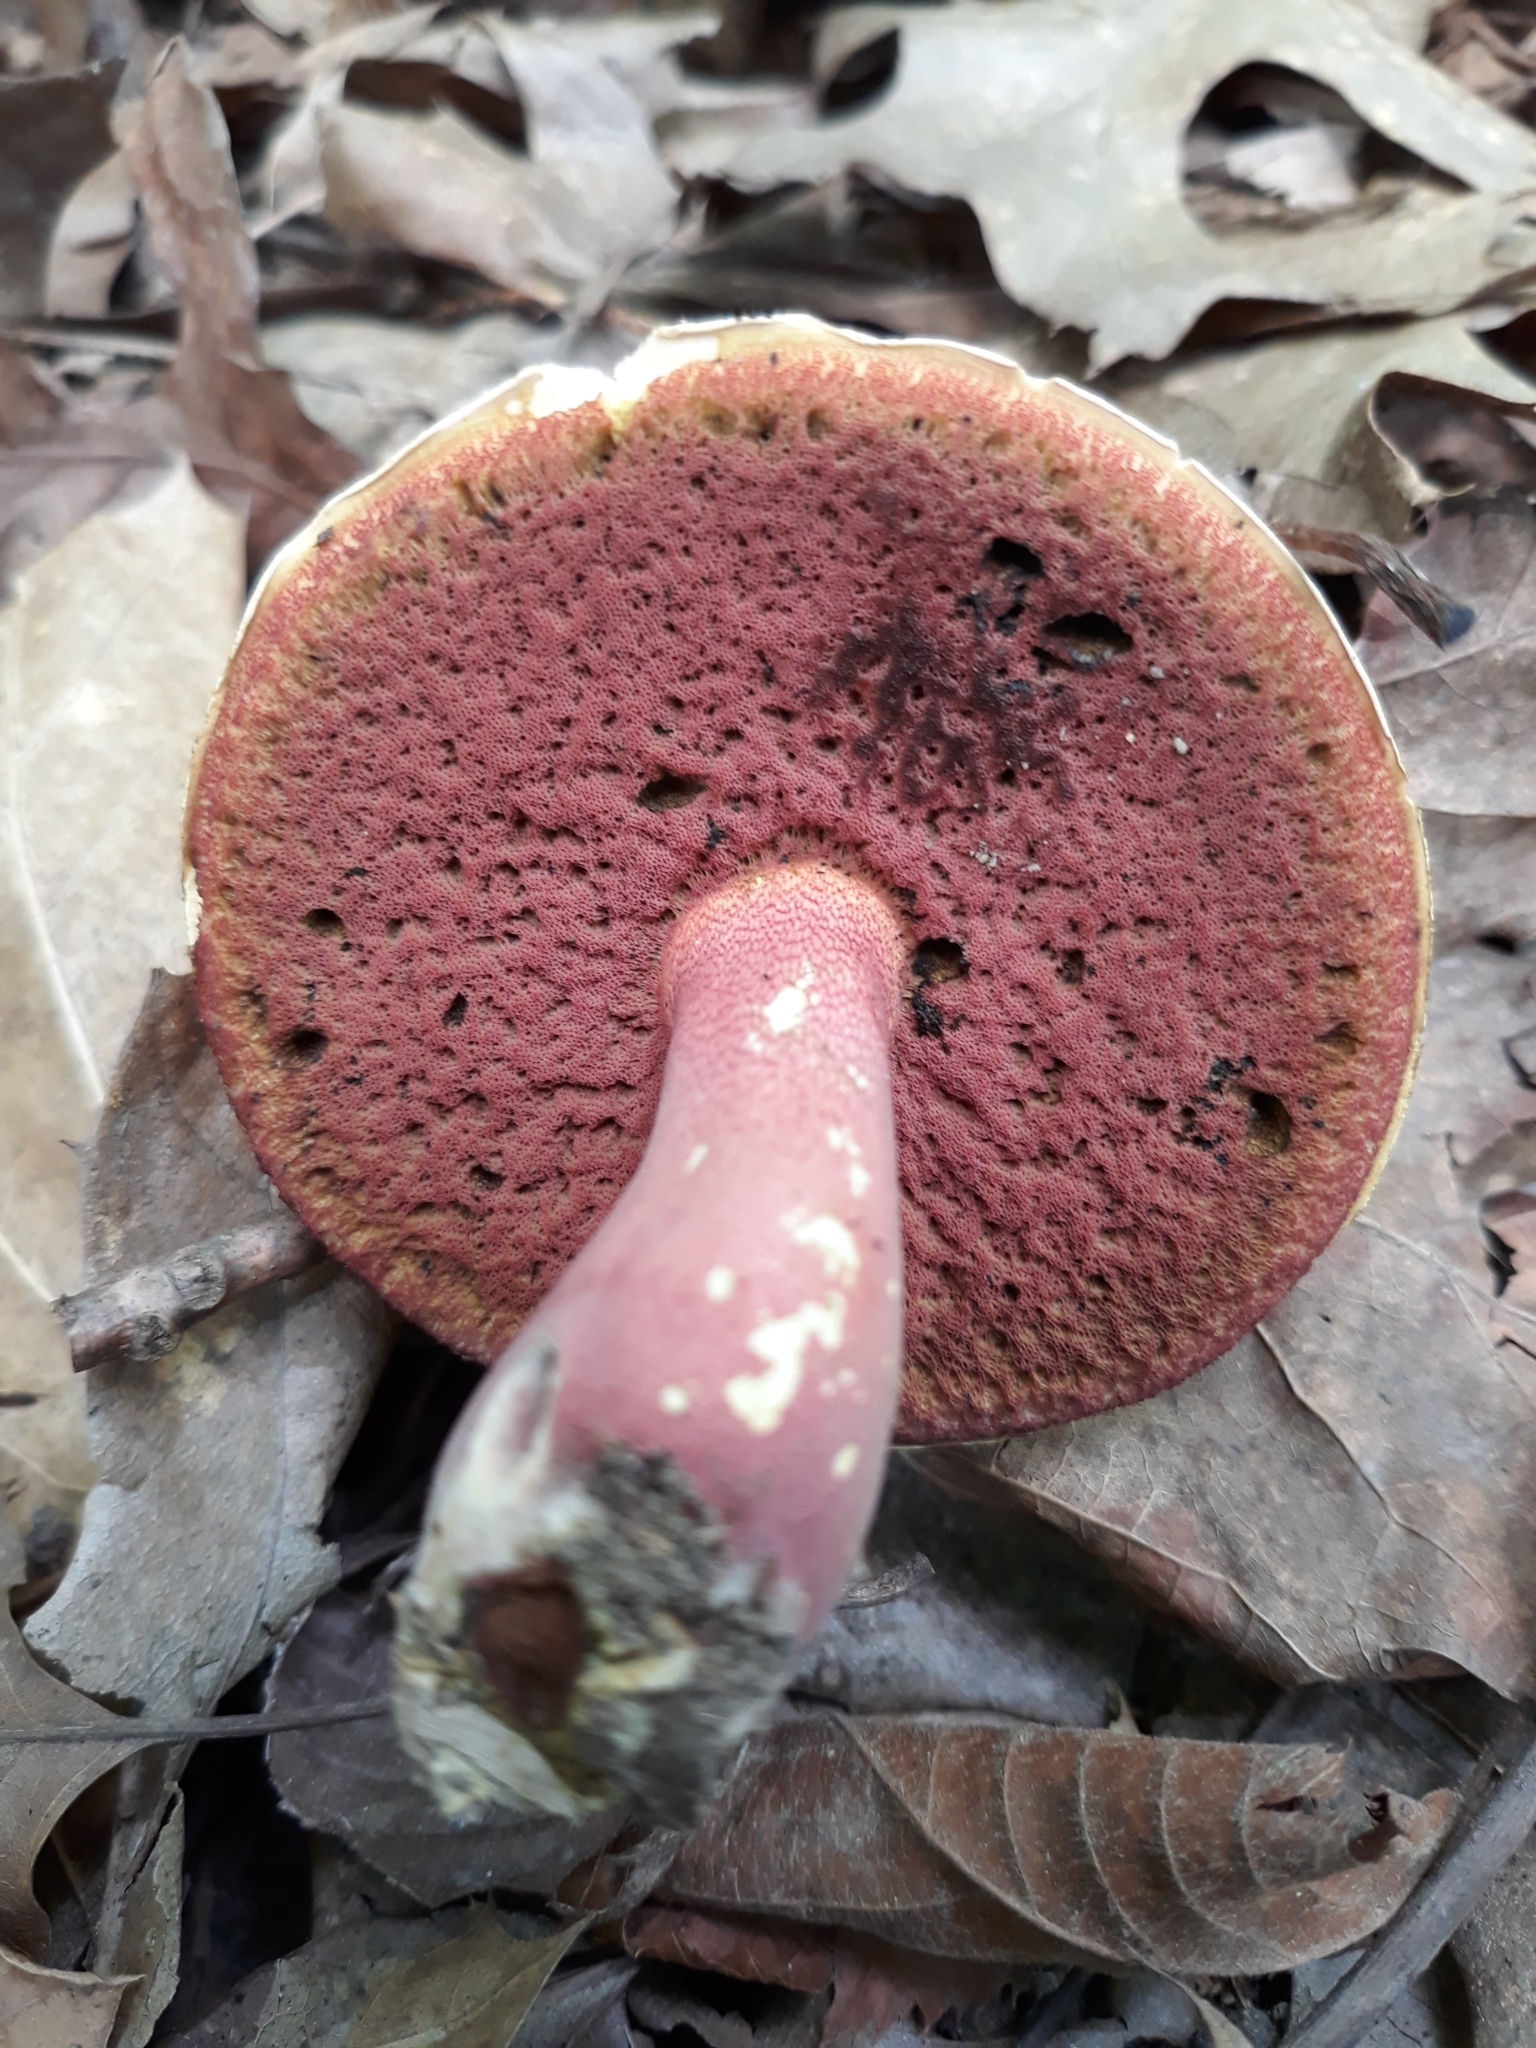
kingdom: Fungi
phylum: Basidiomycota
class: Agaricomycetes
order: Boletales
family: Boletaceae
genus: Rubroboletus
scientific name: Rubroboletus rhodosanguineus
